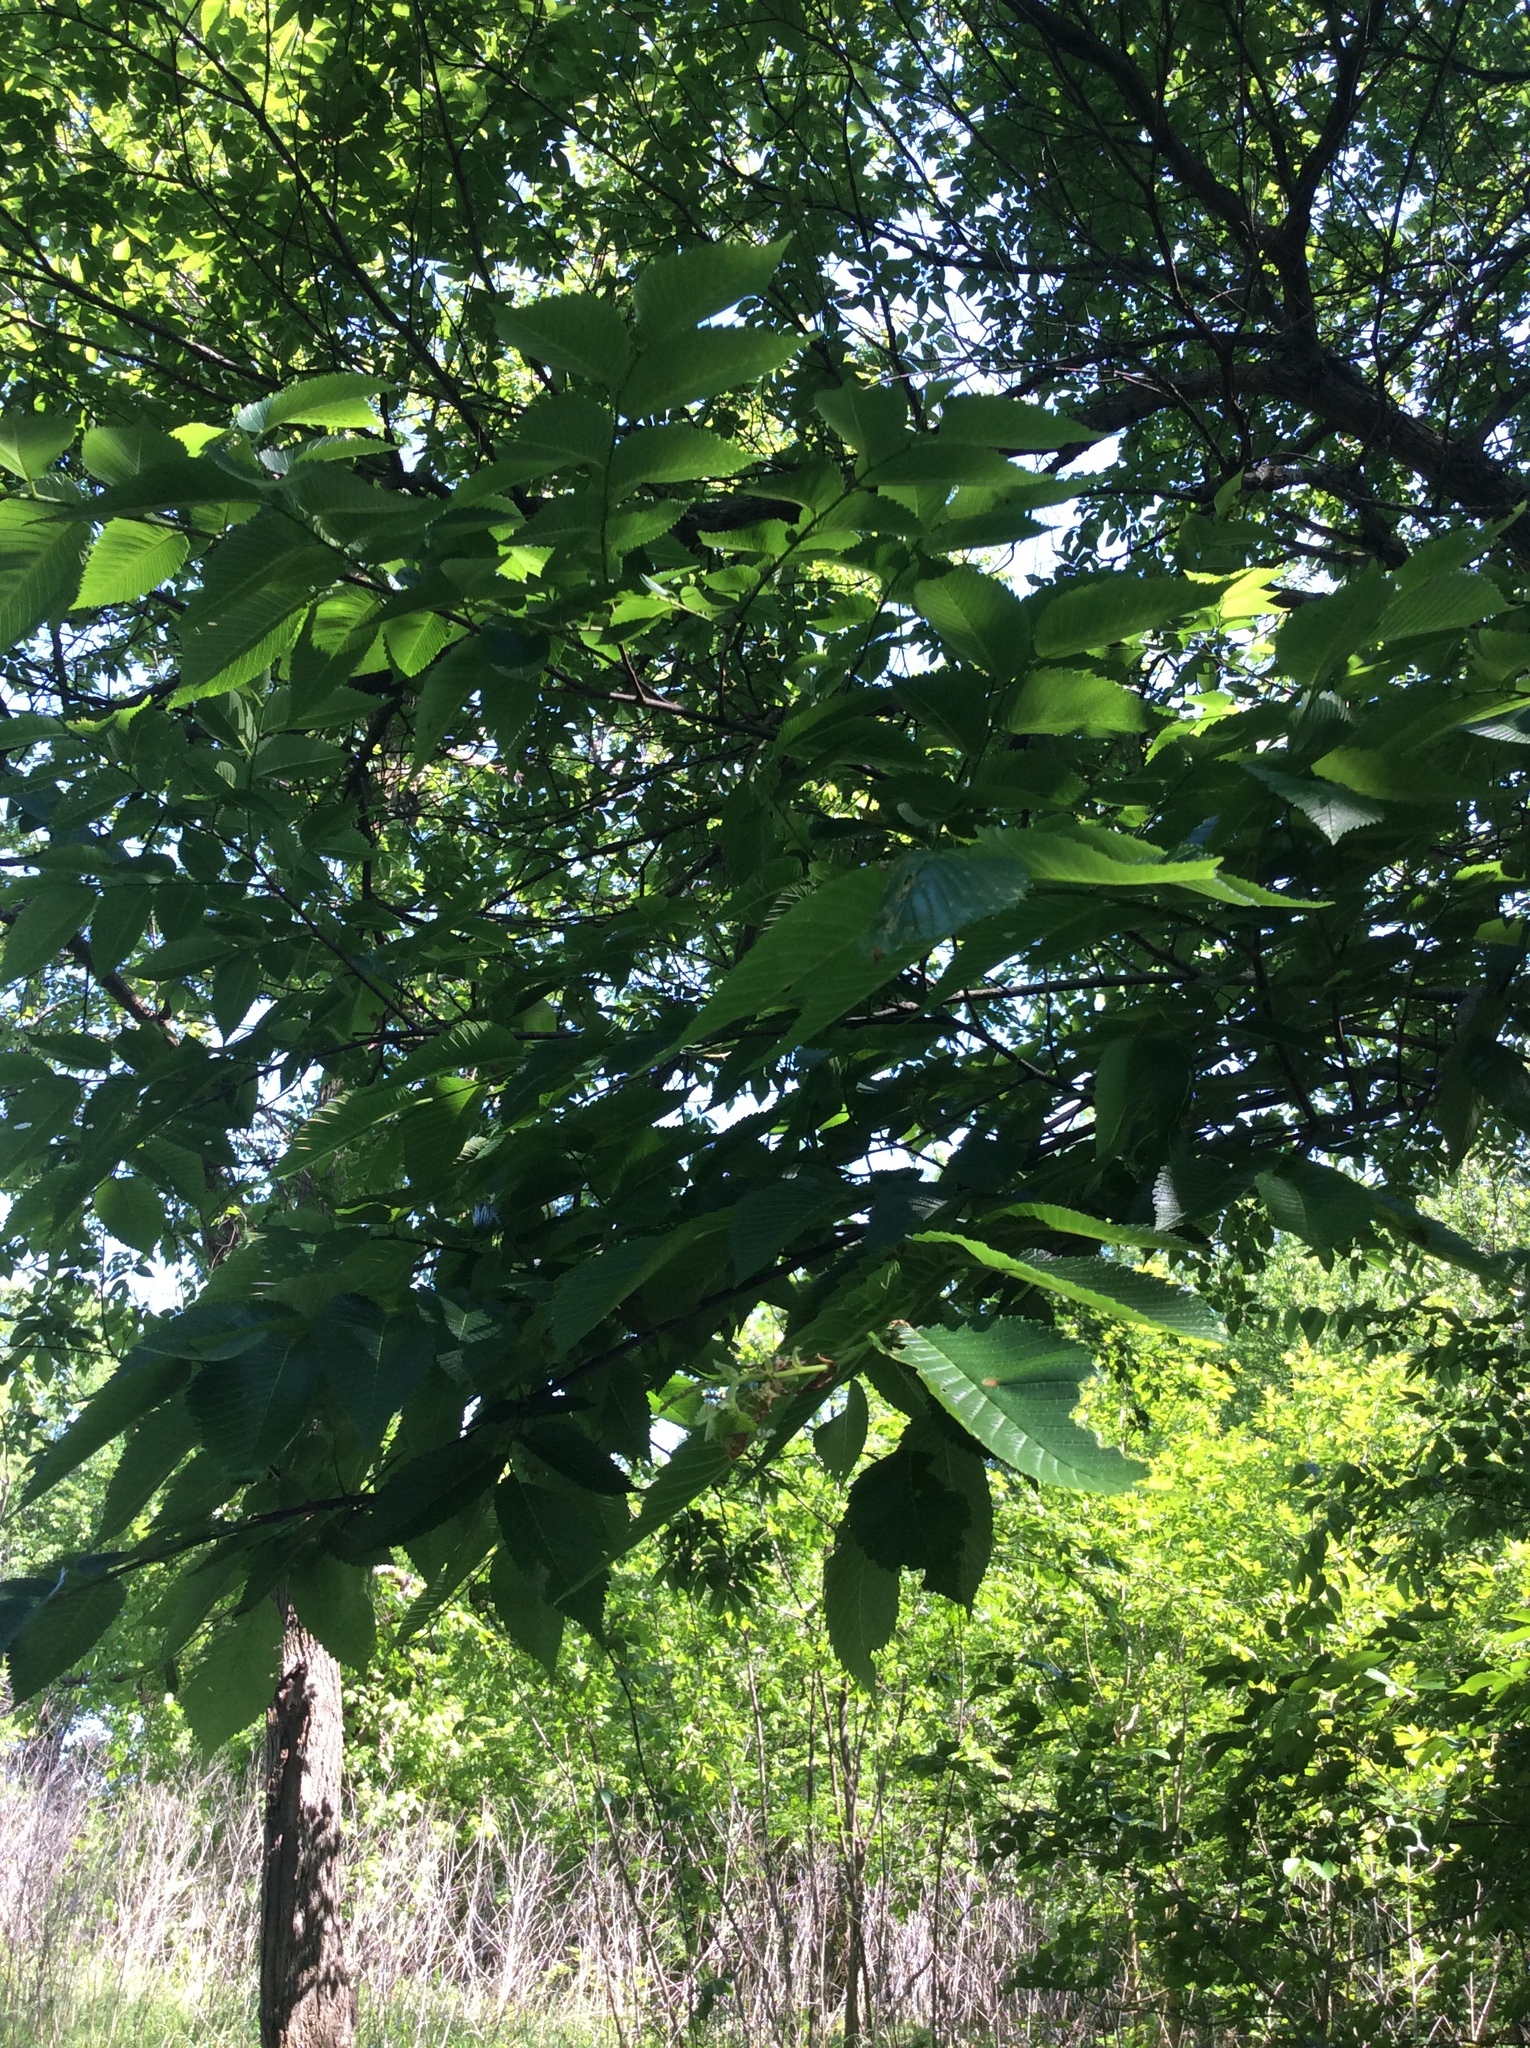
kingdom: Plantae
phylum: Tracheophyta
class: Magnoliopsida
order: Rosales
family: Ulmaceae
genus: Ulmus
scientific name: Ulmus americana
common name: American elm
